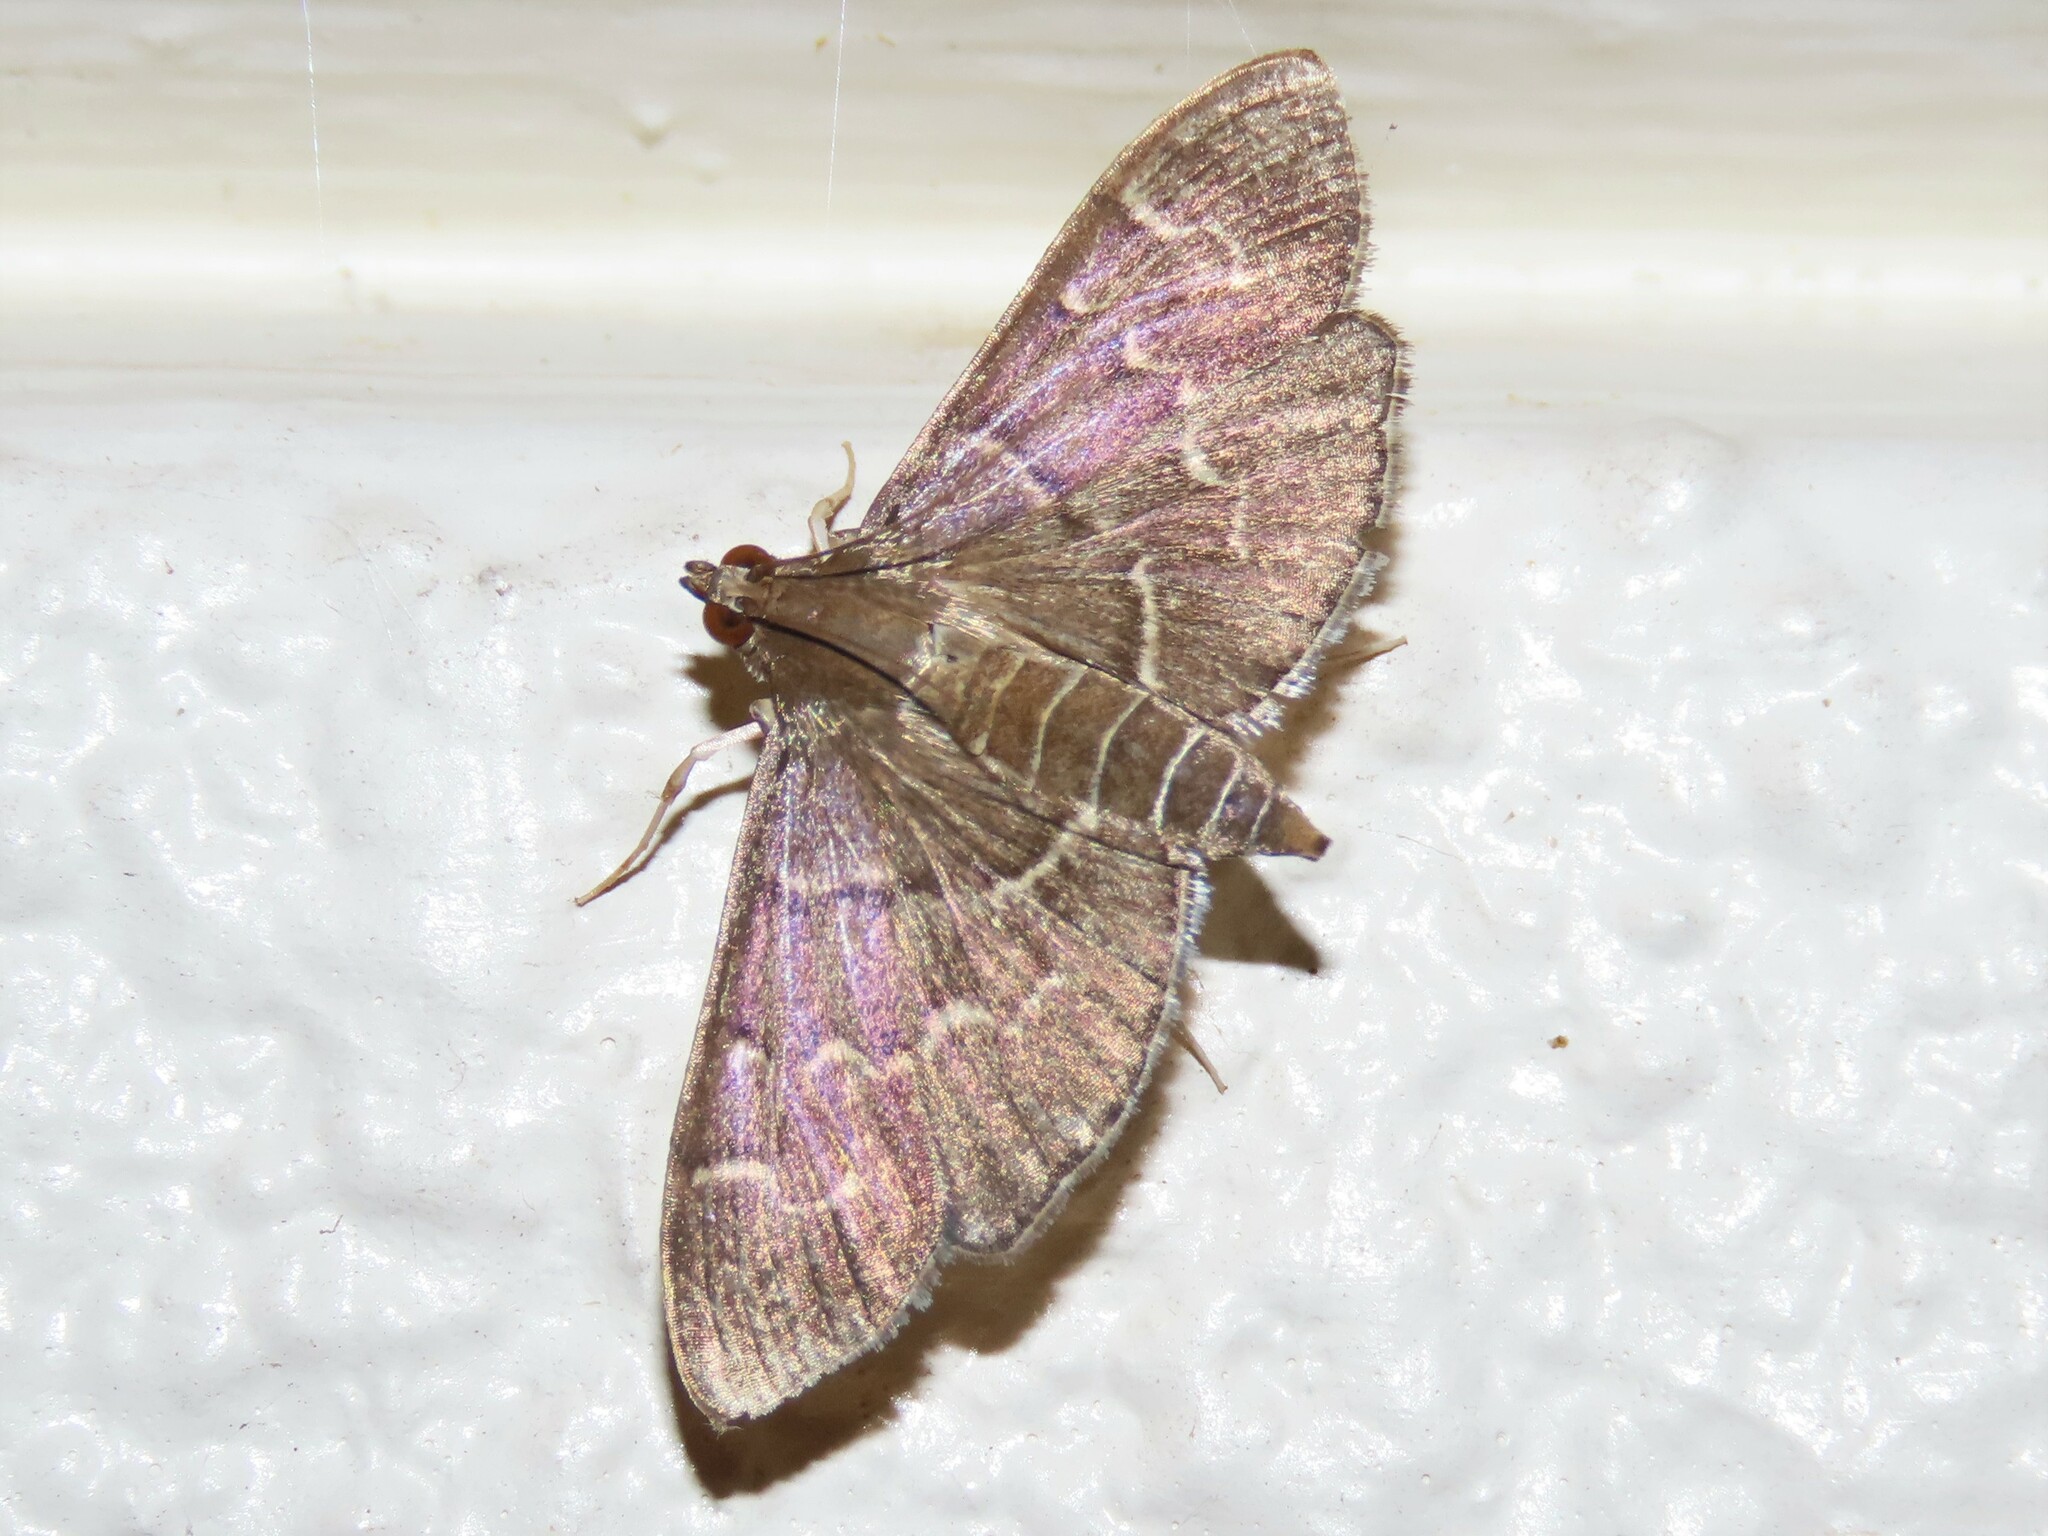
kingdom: Animalia
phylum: Arthropoda
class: Insecta
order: Lepidoptera
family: Crambidae
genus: Pilocrocis
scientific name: Pilocrocis ramentalis
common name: Scraped pilocrocis
